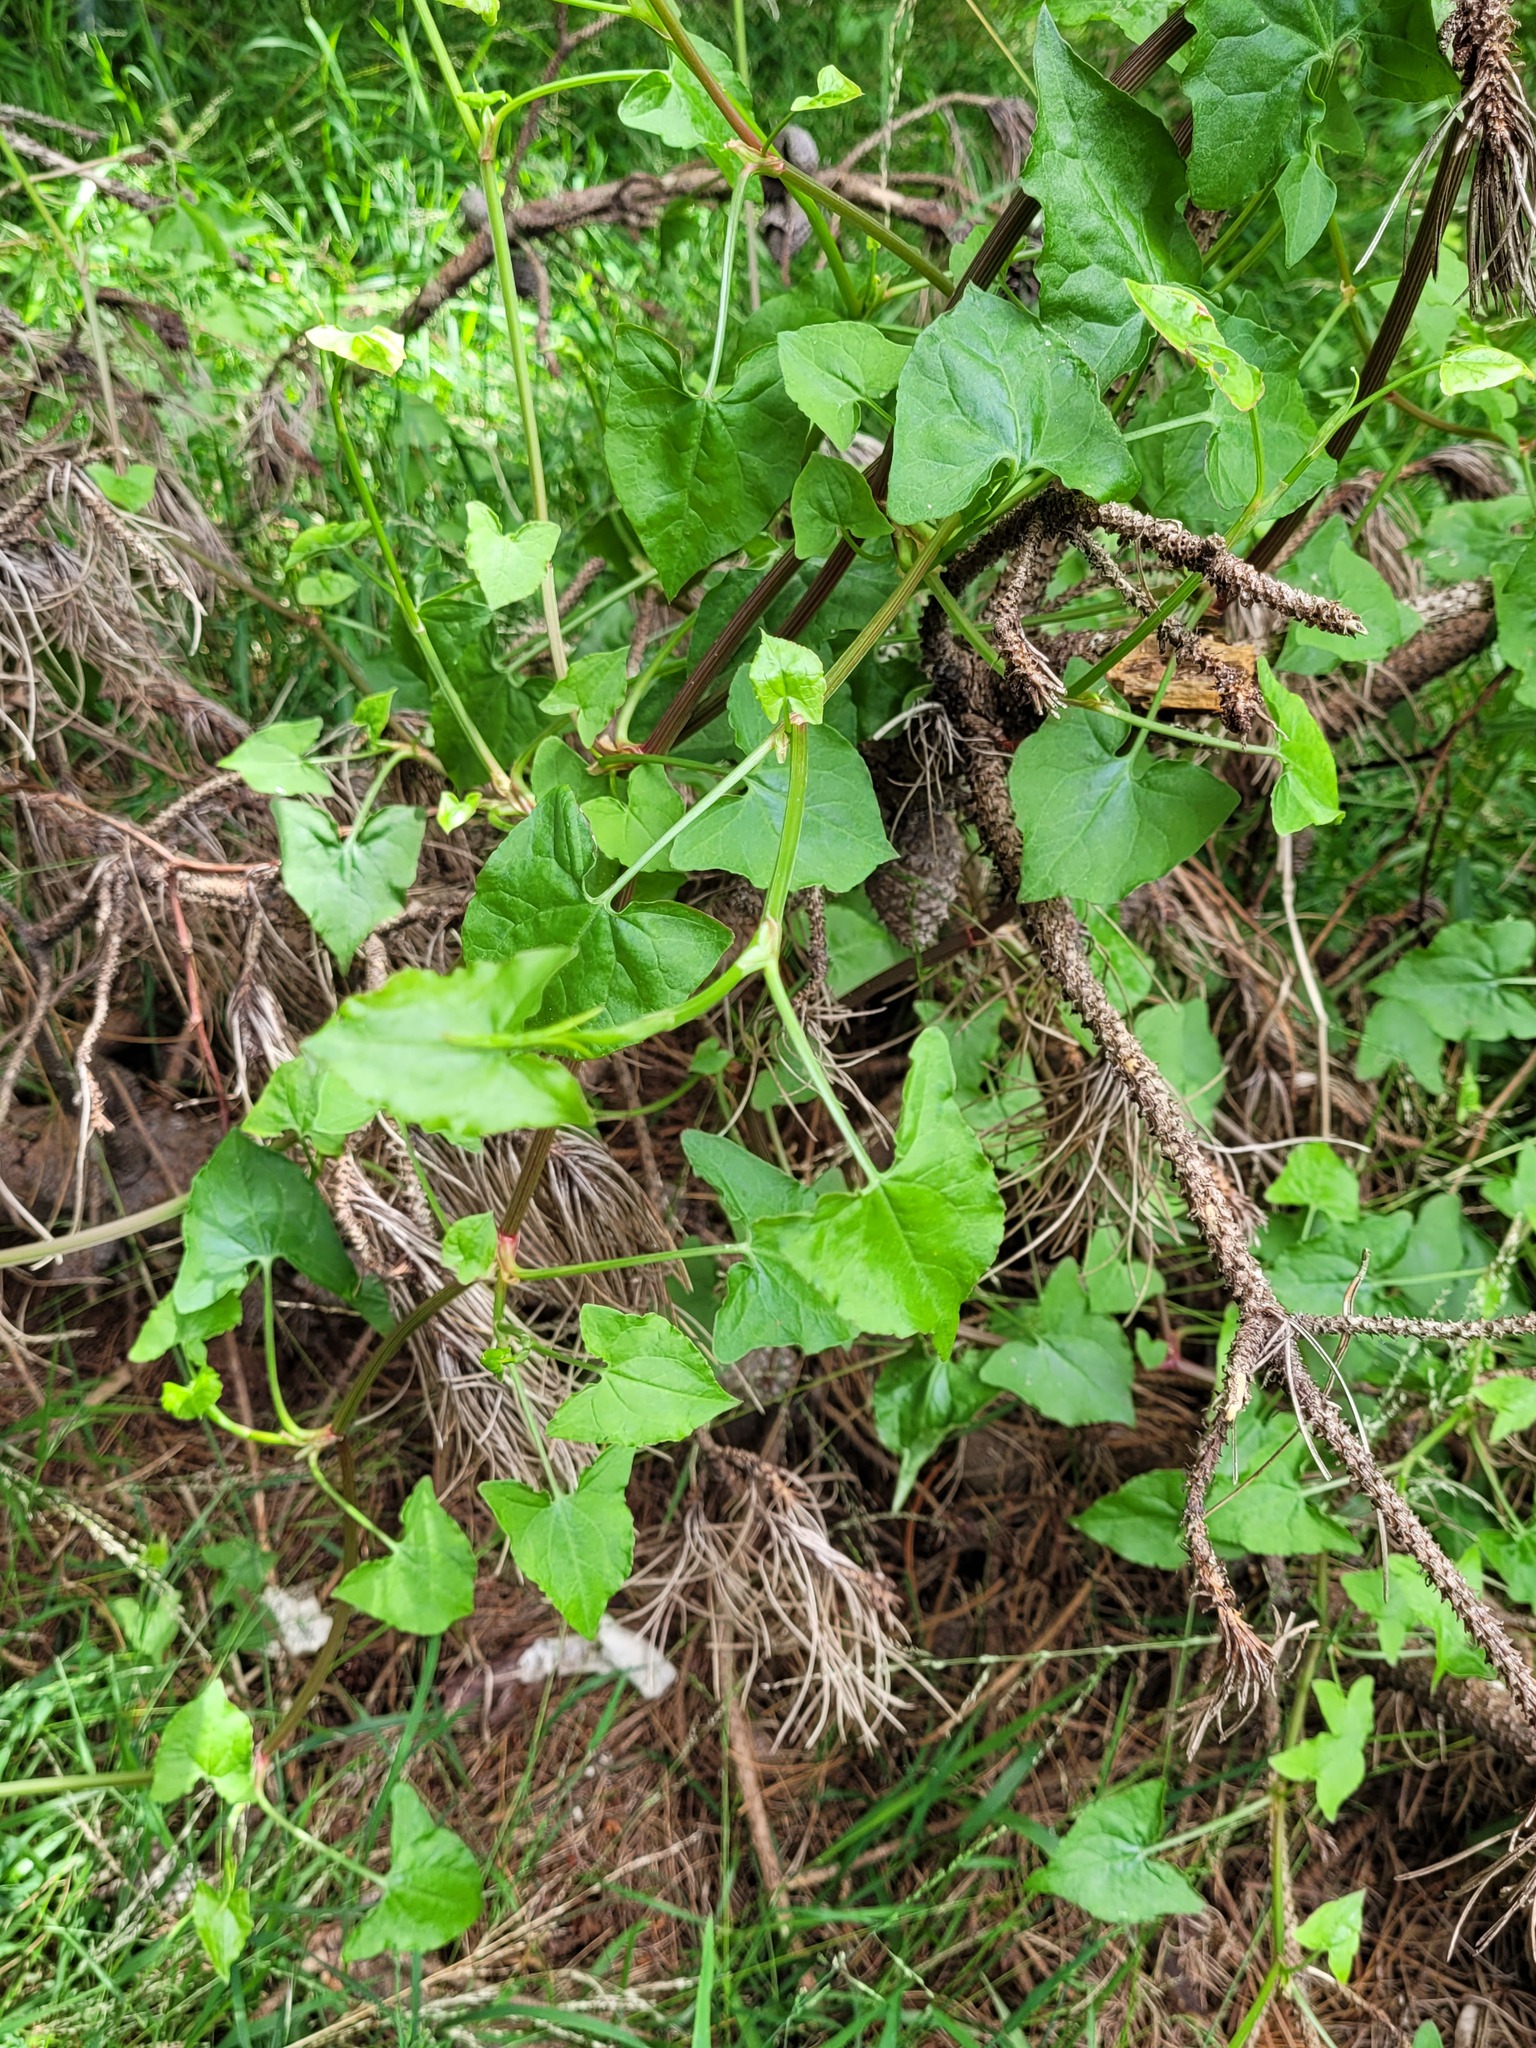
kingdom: Plantae
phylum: Tracheophyta
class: Magnoliopsida
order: Caryophyllales
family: Polygonaceae
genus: Rumex
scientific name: Rumex sagittatus
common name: Climbing dock
